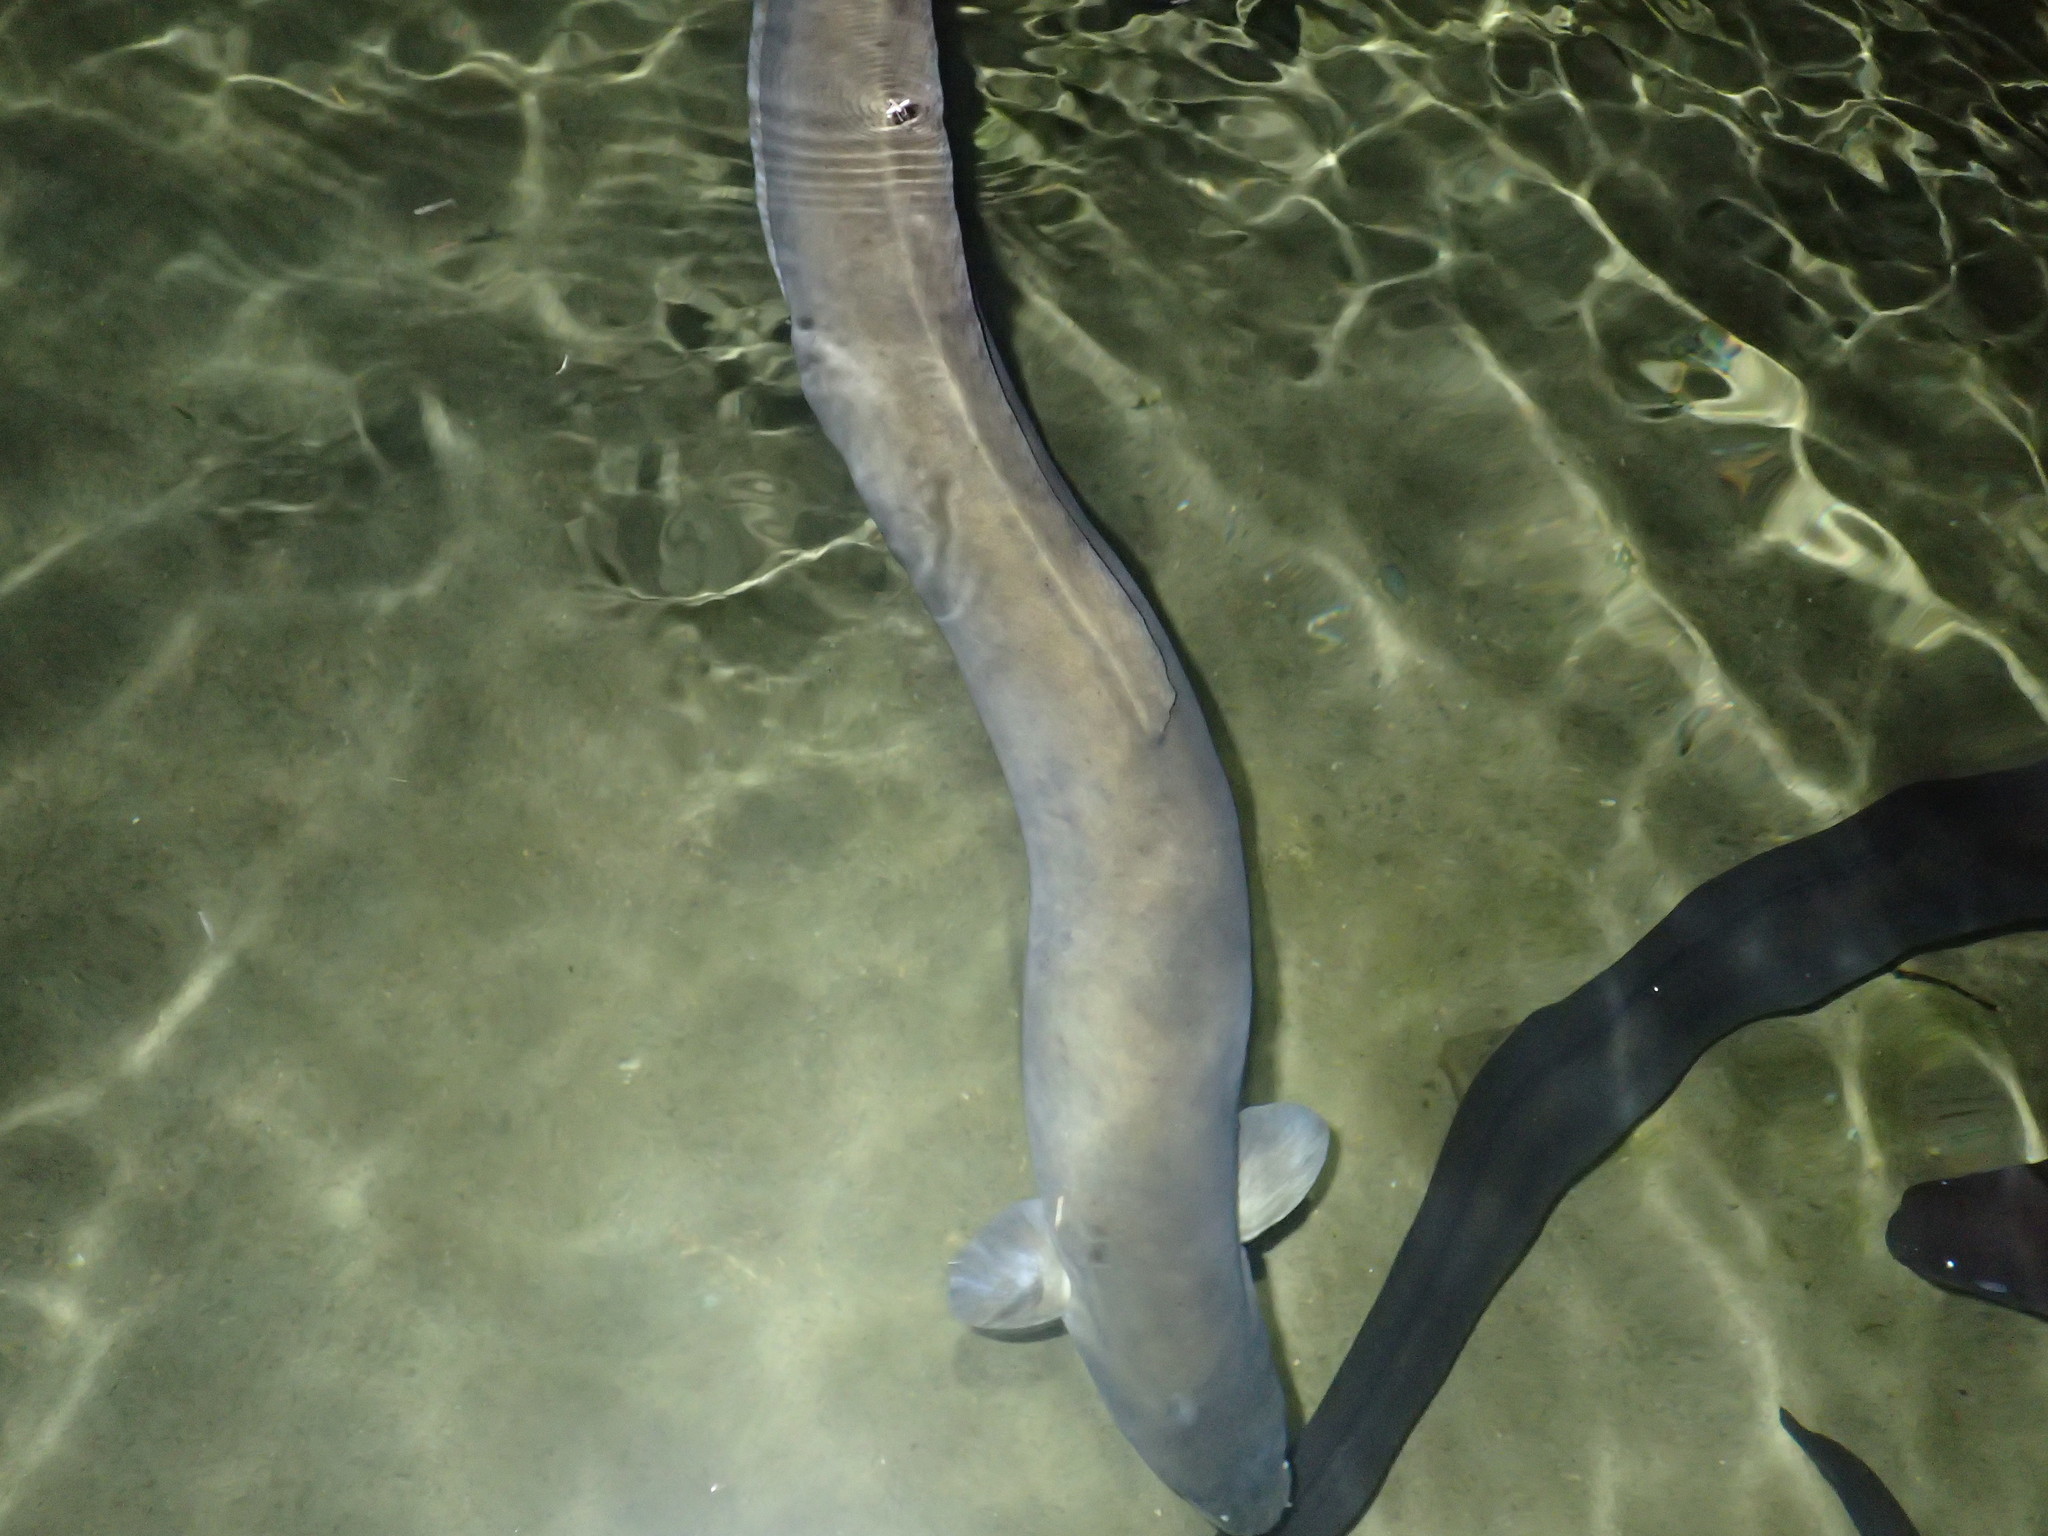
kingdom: Animalia
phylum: Chordata
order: Anguilliformes
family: Anguillidae
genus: Anguilla
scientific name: Anguilla dieffenbachii
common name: New zealand longfin eel
